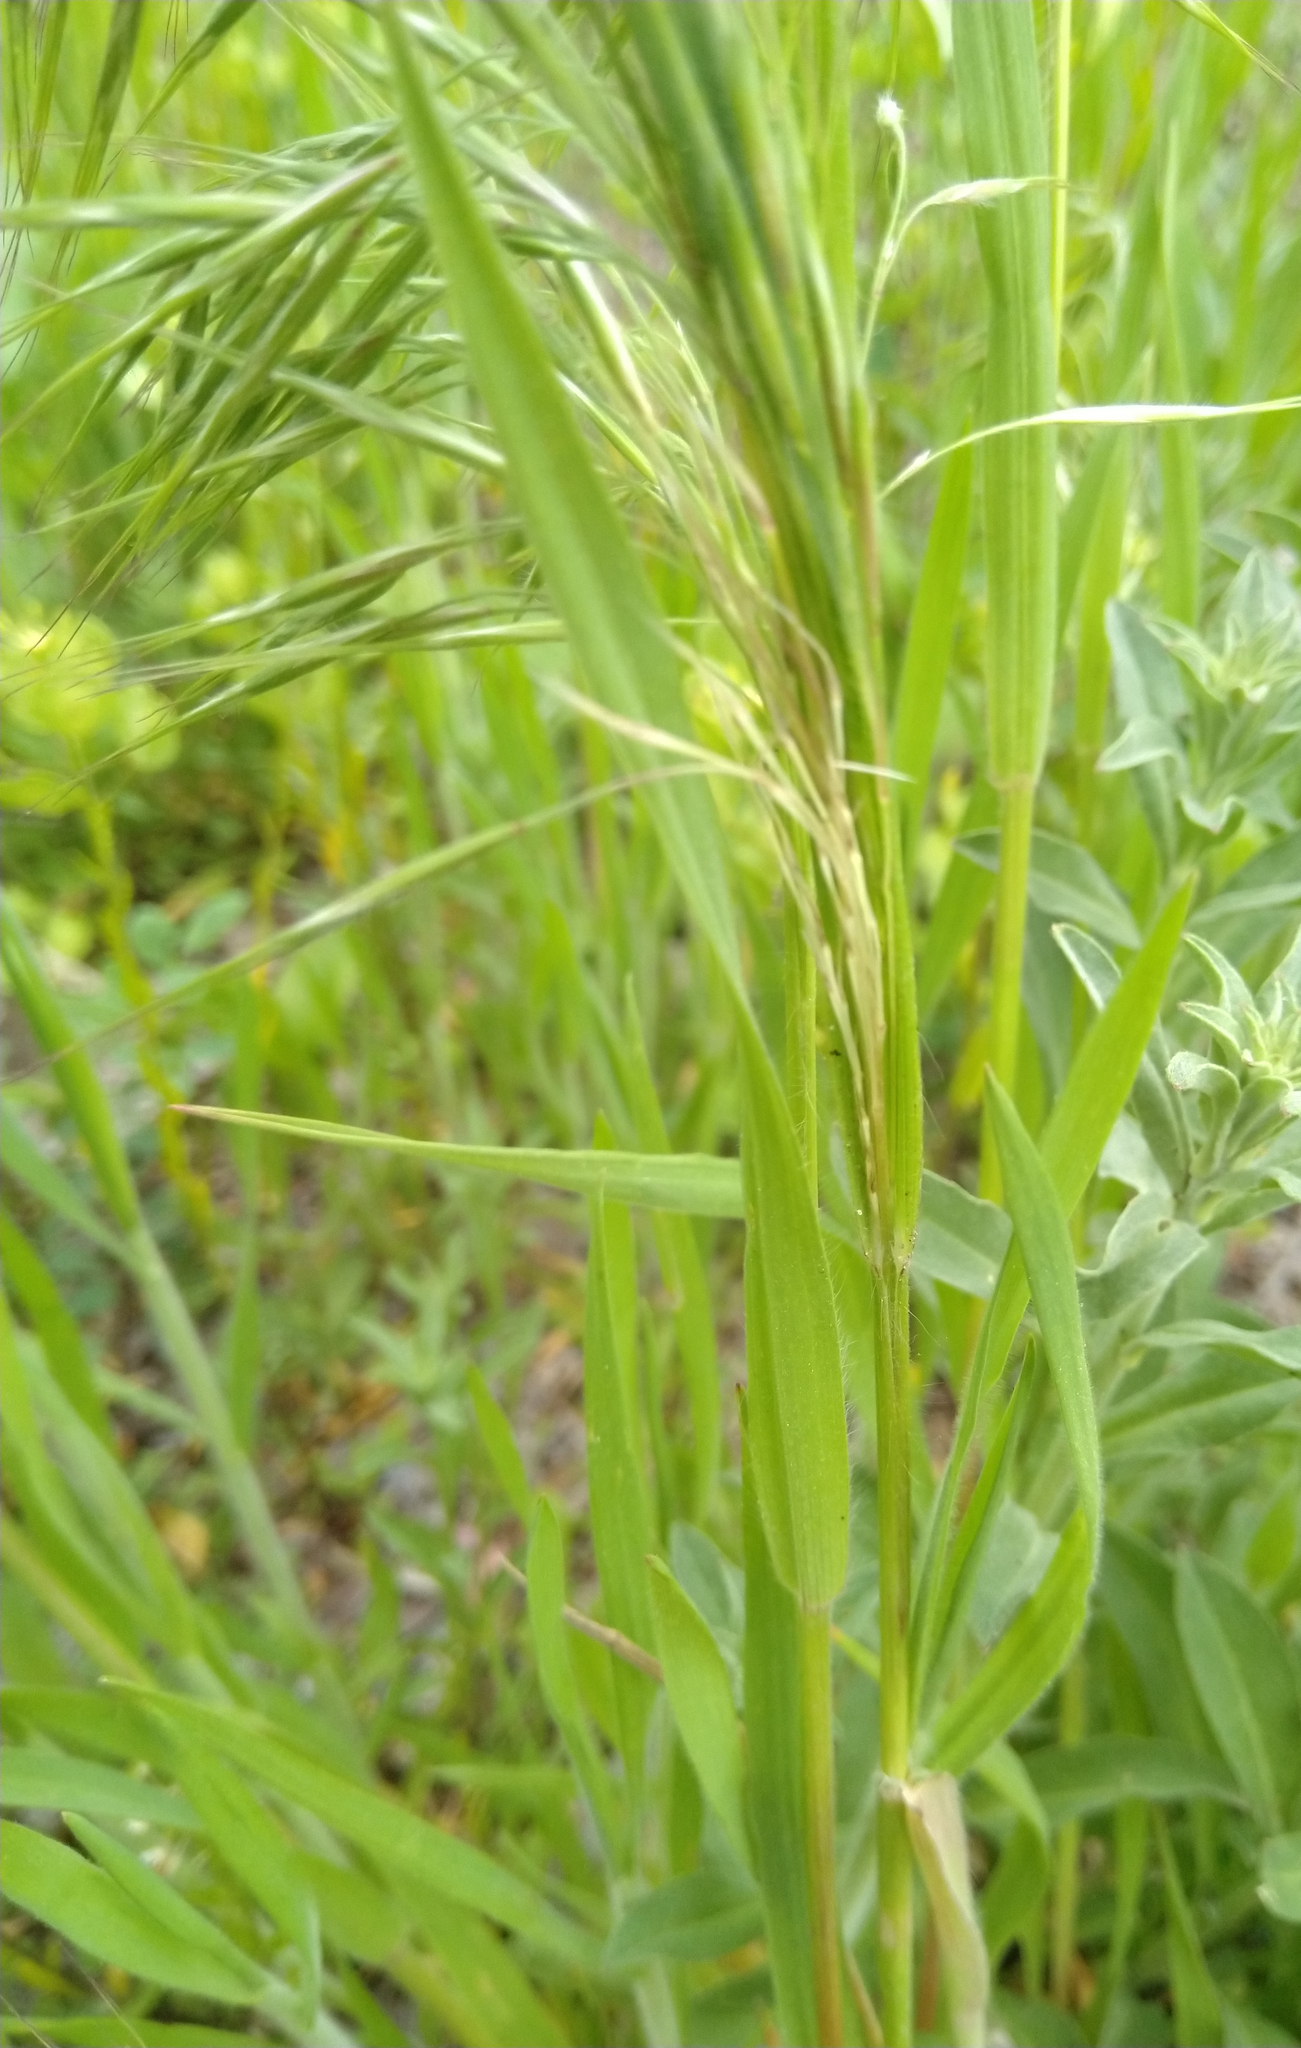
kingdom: Plantae
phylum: Tracheophyta
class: Liliopsida
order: Poales
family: Poaceae
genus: Bromus
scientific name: Bromus tectorum
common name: Cheatgrass
